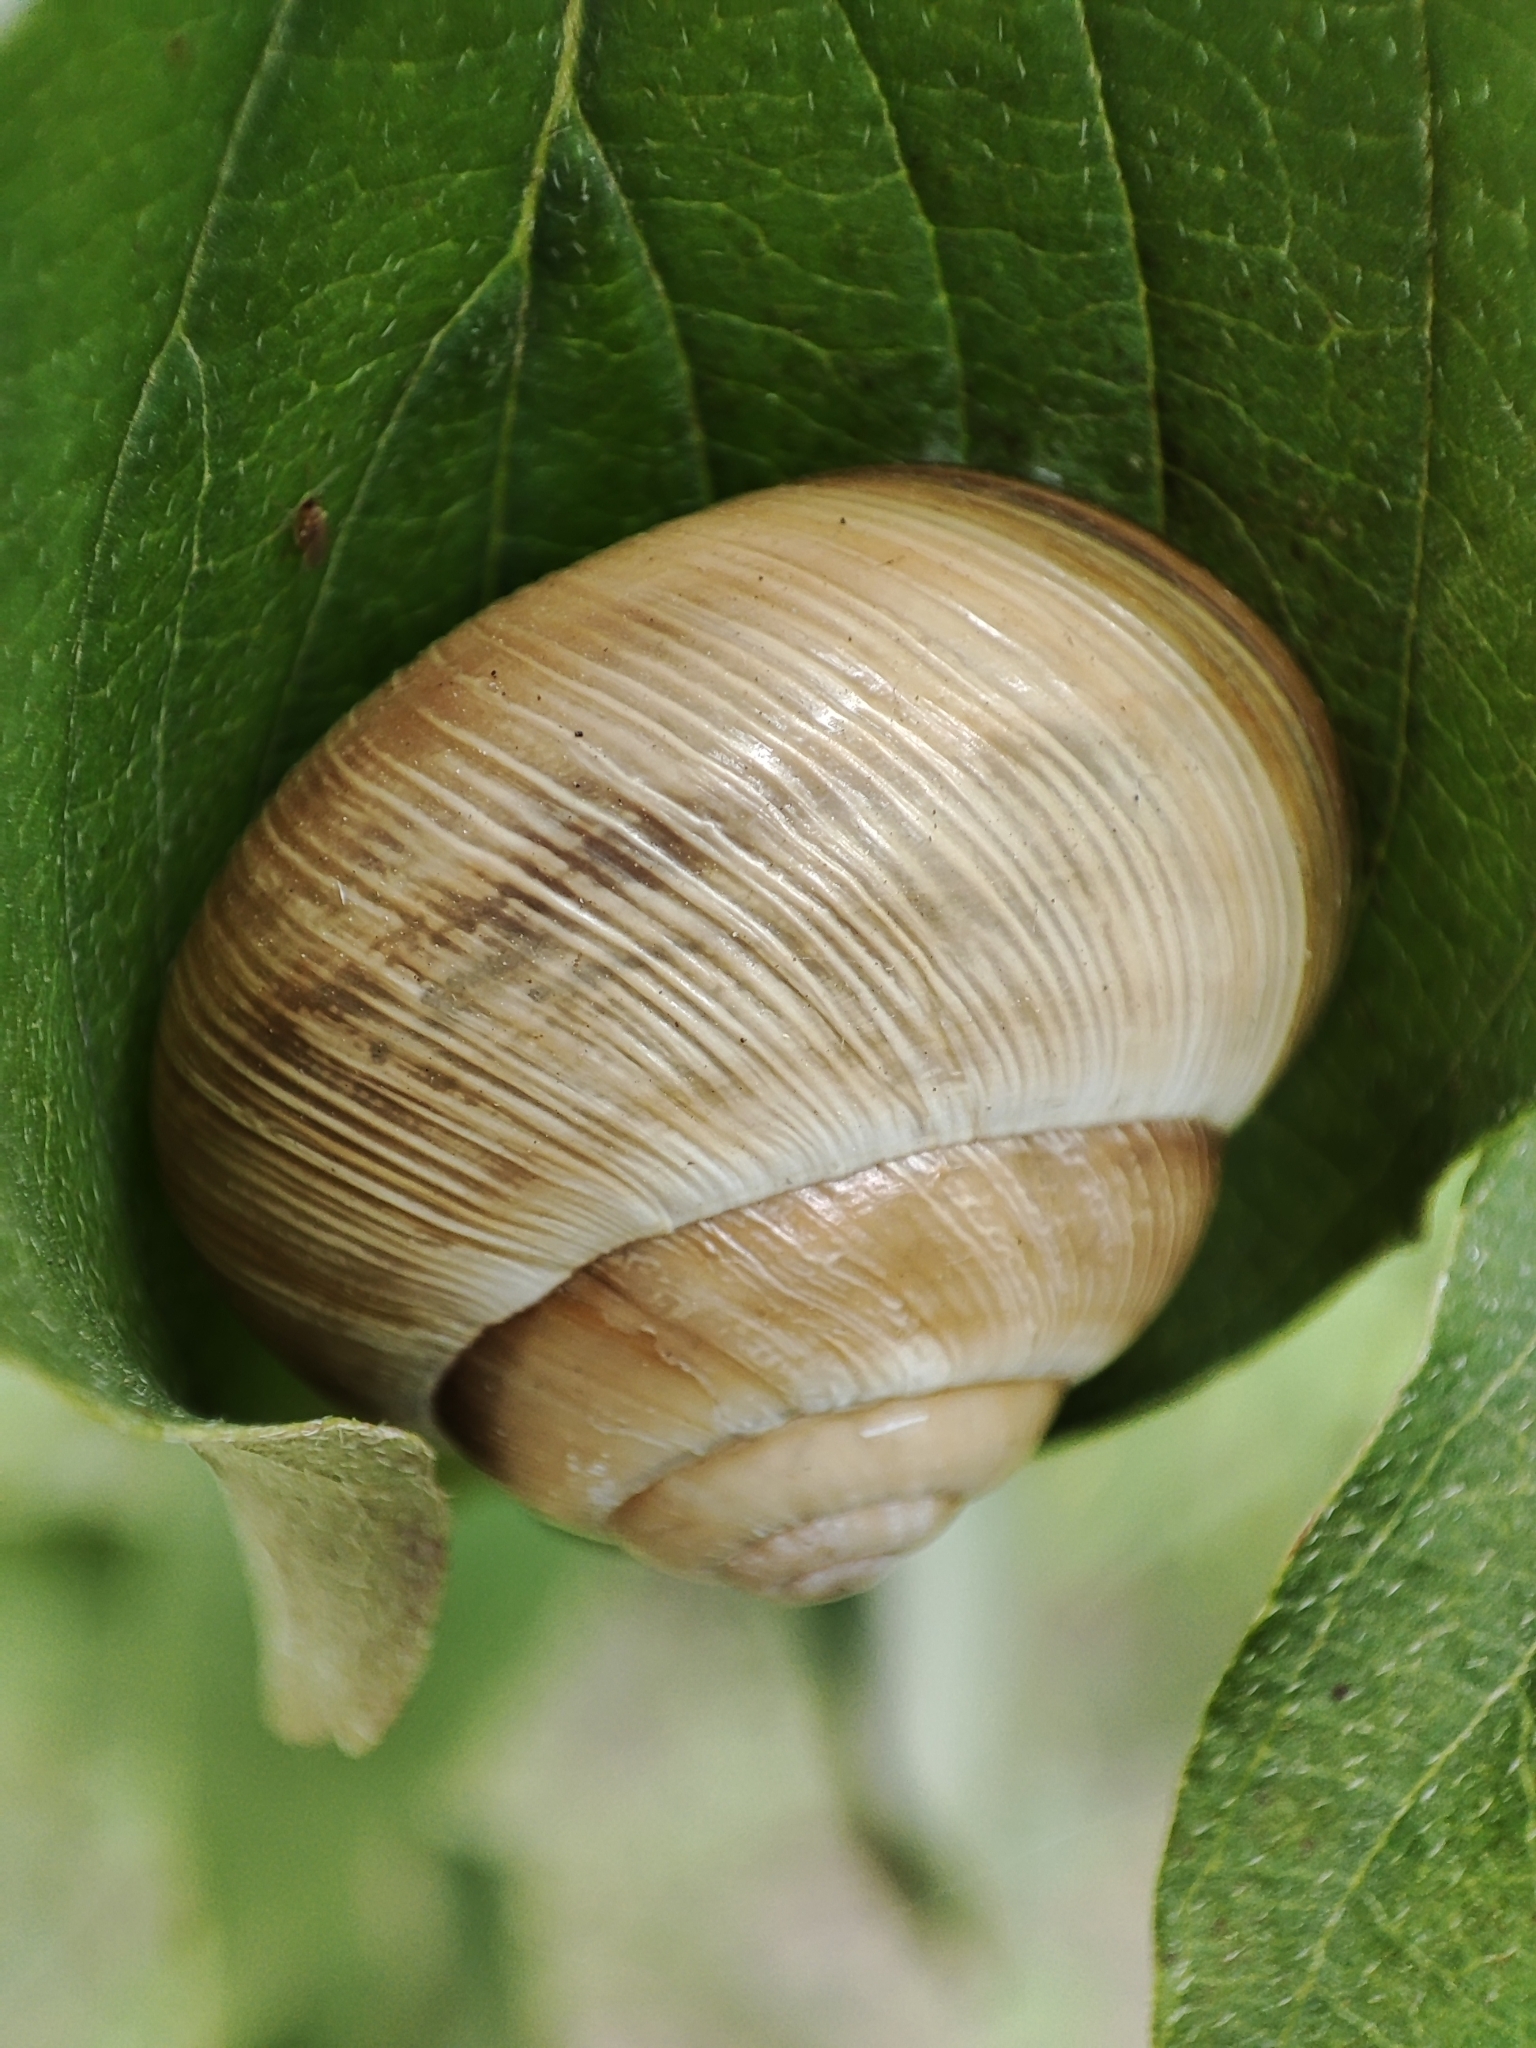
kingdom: Animalia
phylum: Mollusca
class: Gastropoda
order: Stylommatophora
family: Helicidae
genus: Caucasotachea
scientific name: Caucasotachea vindobonensis
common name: European helicid land snail
